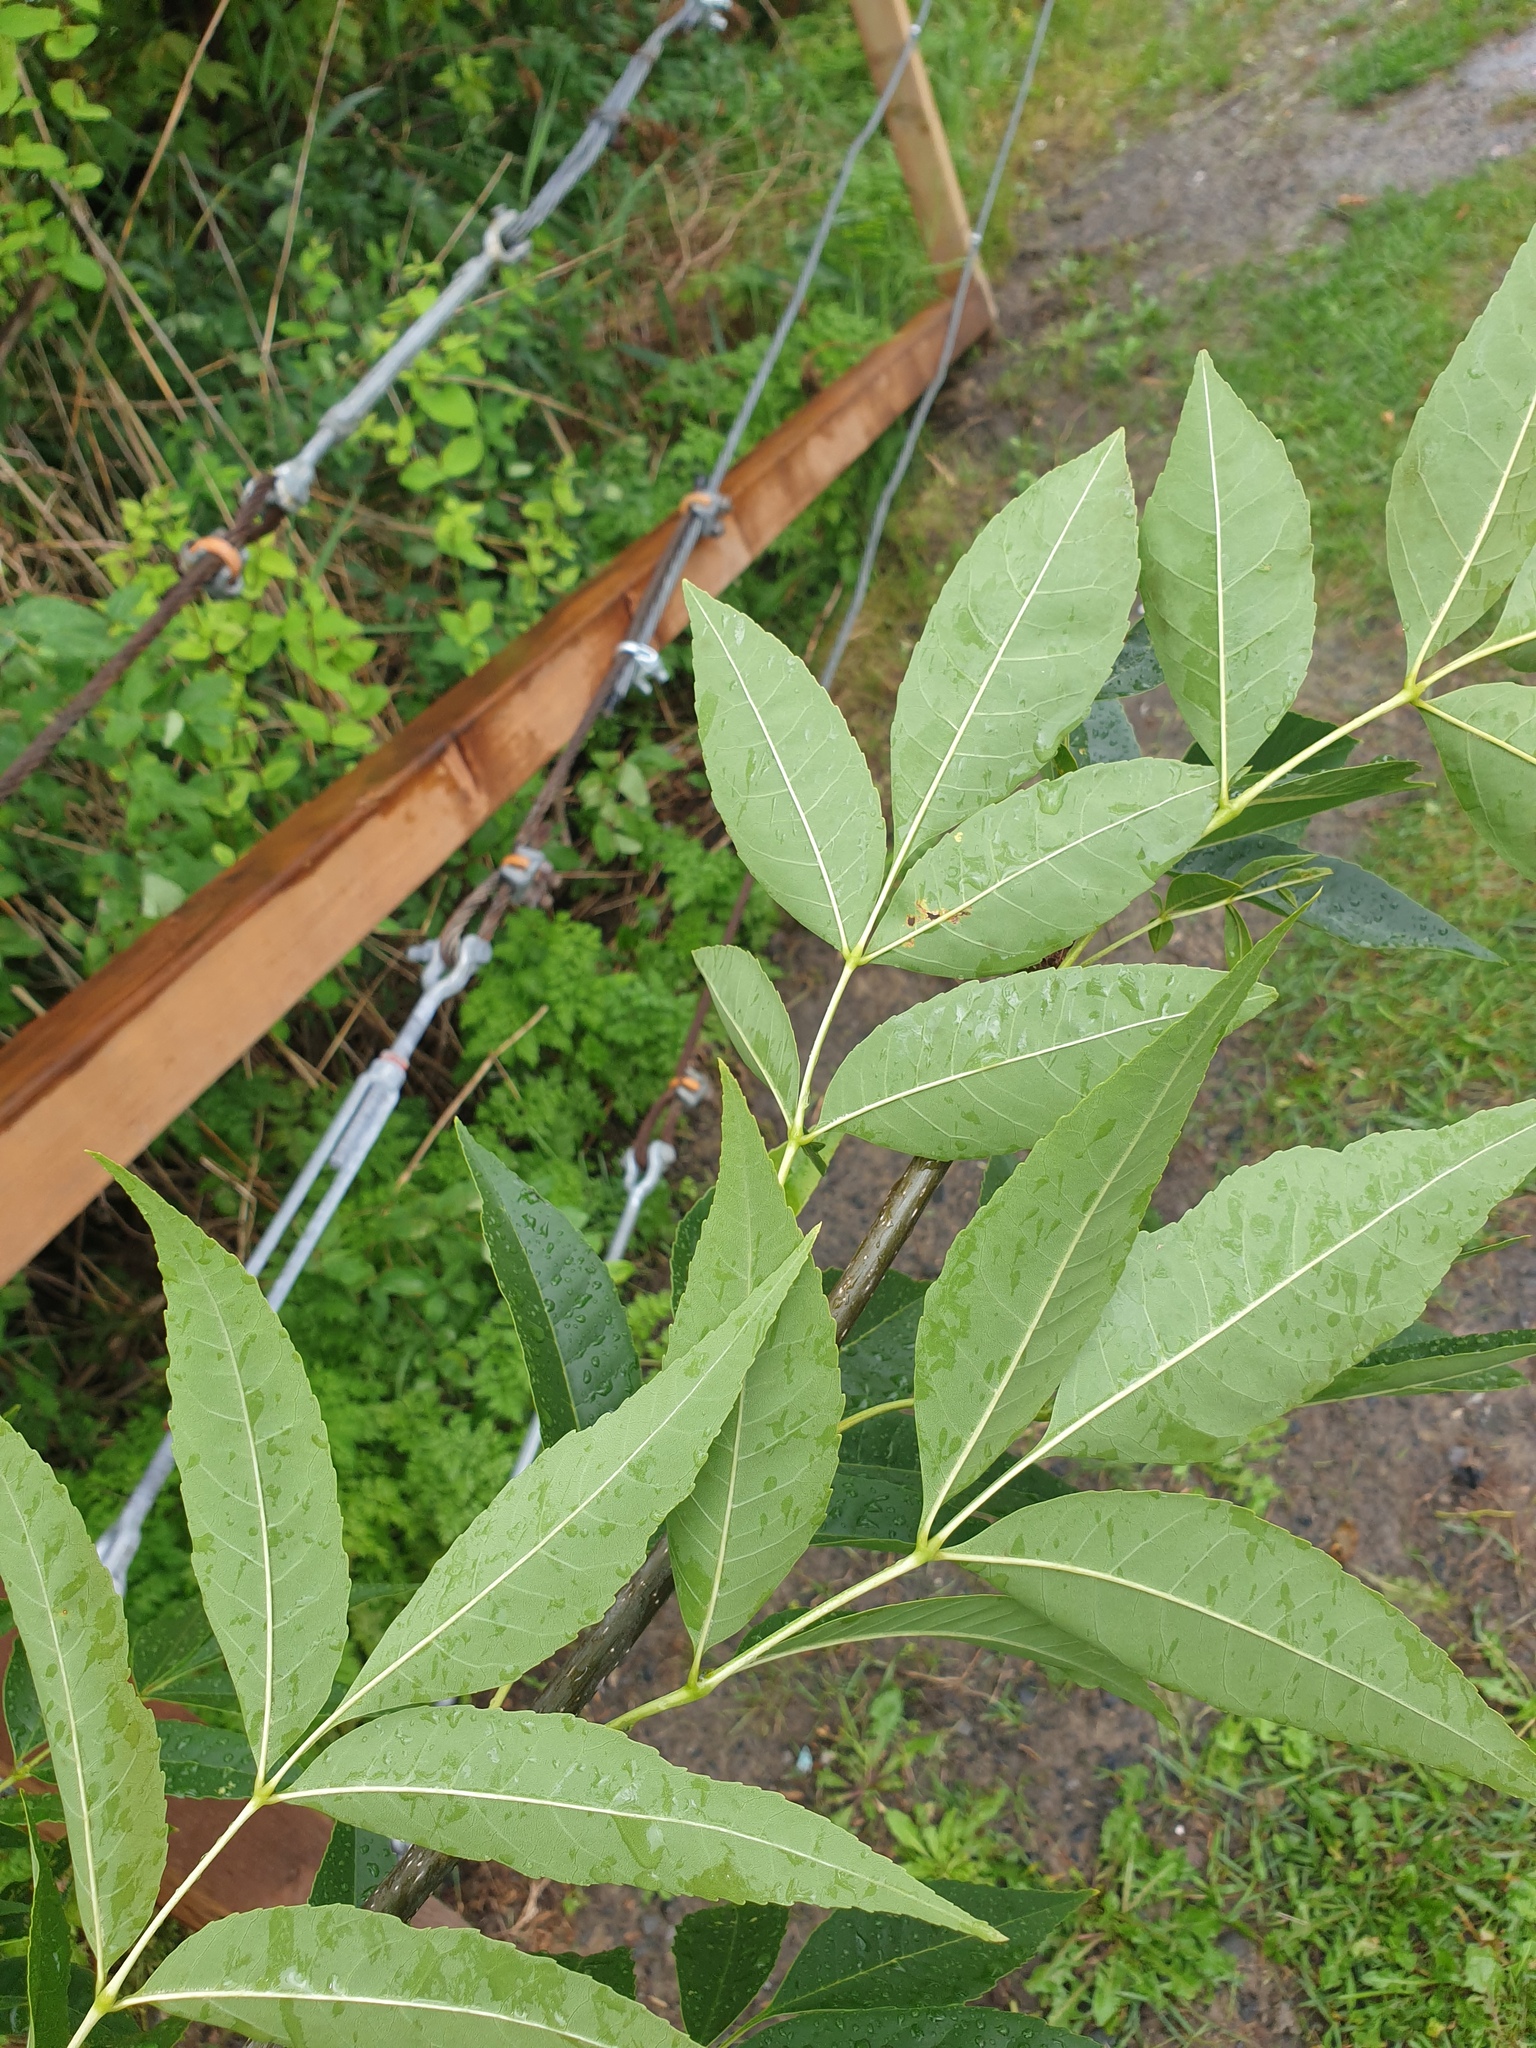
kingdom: Plantae
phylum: Tracheophyta
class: Magnoliopsida
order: Lamiales
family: Oleaceae
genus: Fraxinus
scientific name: Fraxinus pennsylvanica
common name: Green ash
